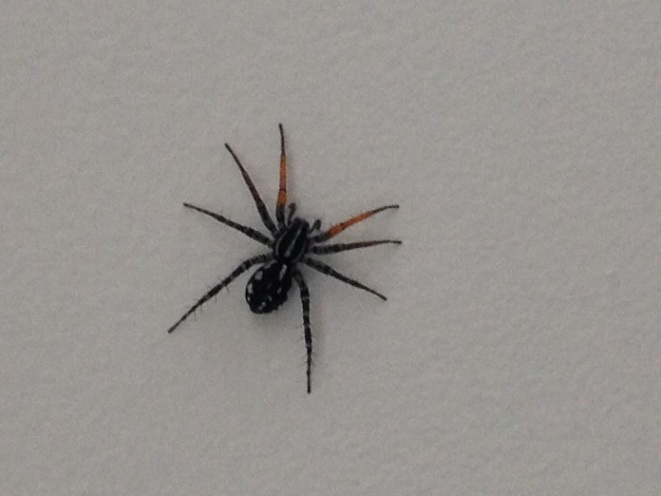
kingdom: Animalia
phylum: Arthropoda
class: Arachnida
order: Araneae
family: Corinnidae
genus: Nyssus
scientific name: Nyssus coloripes
